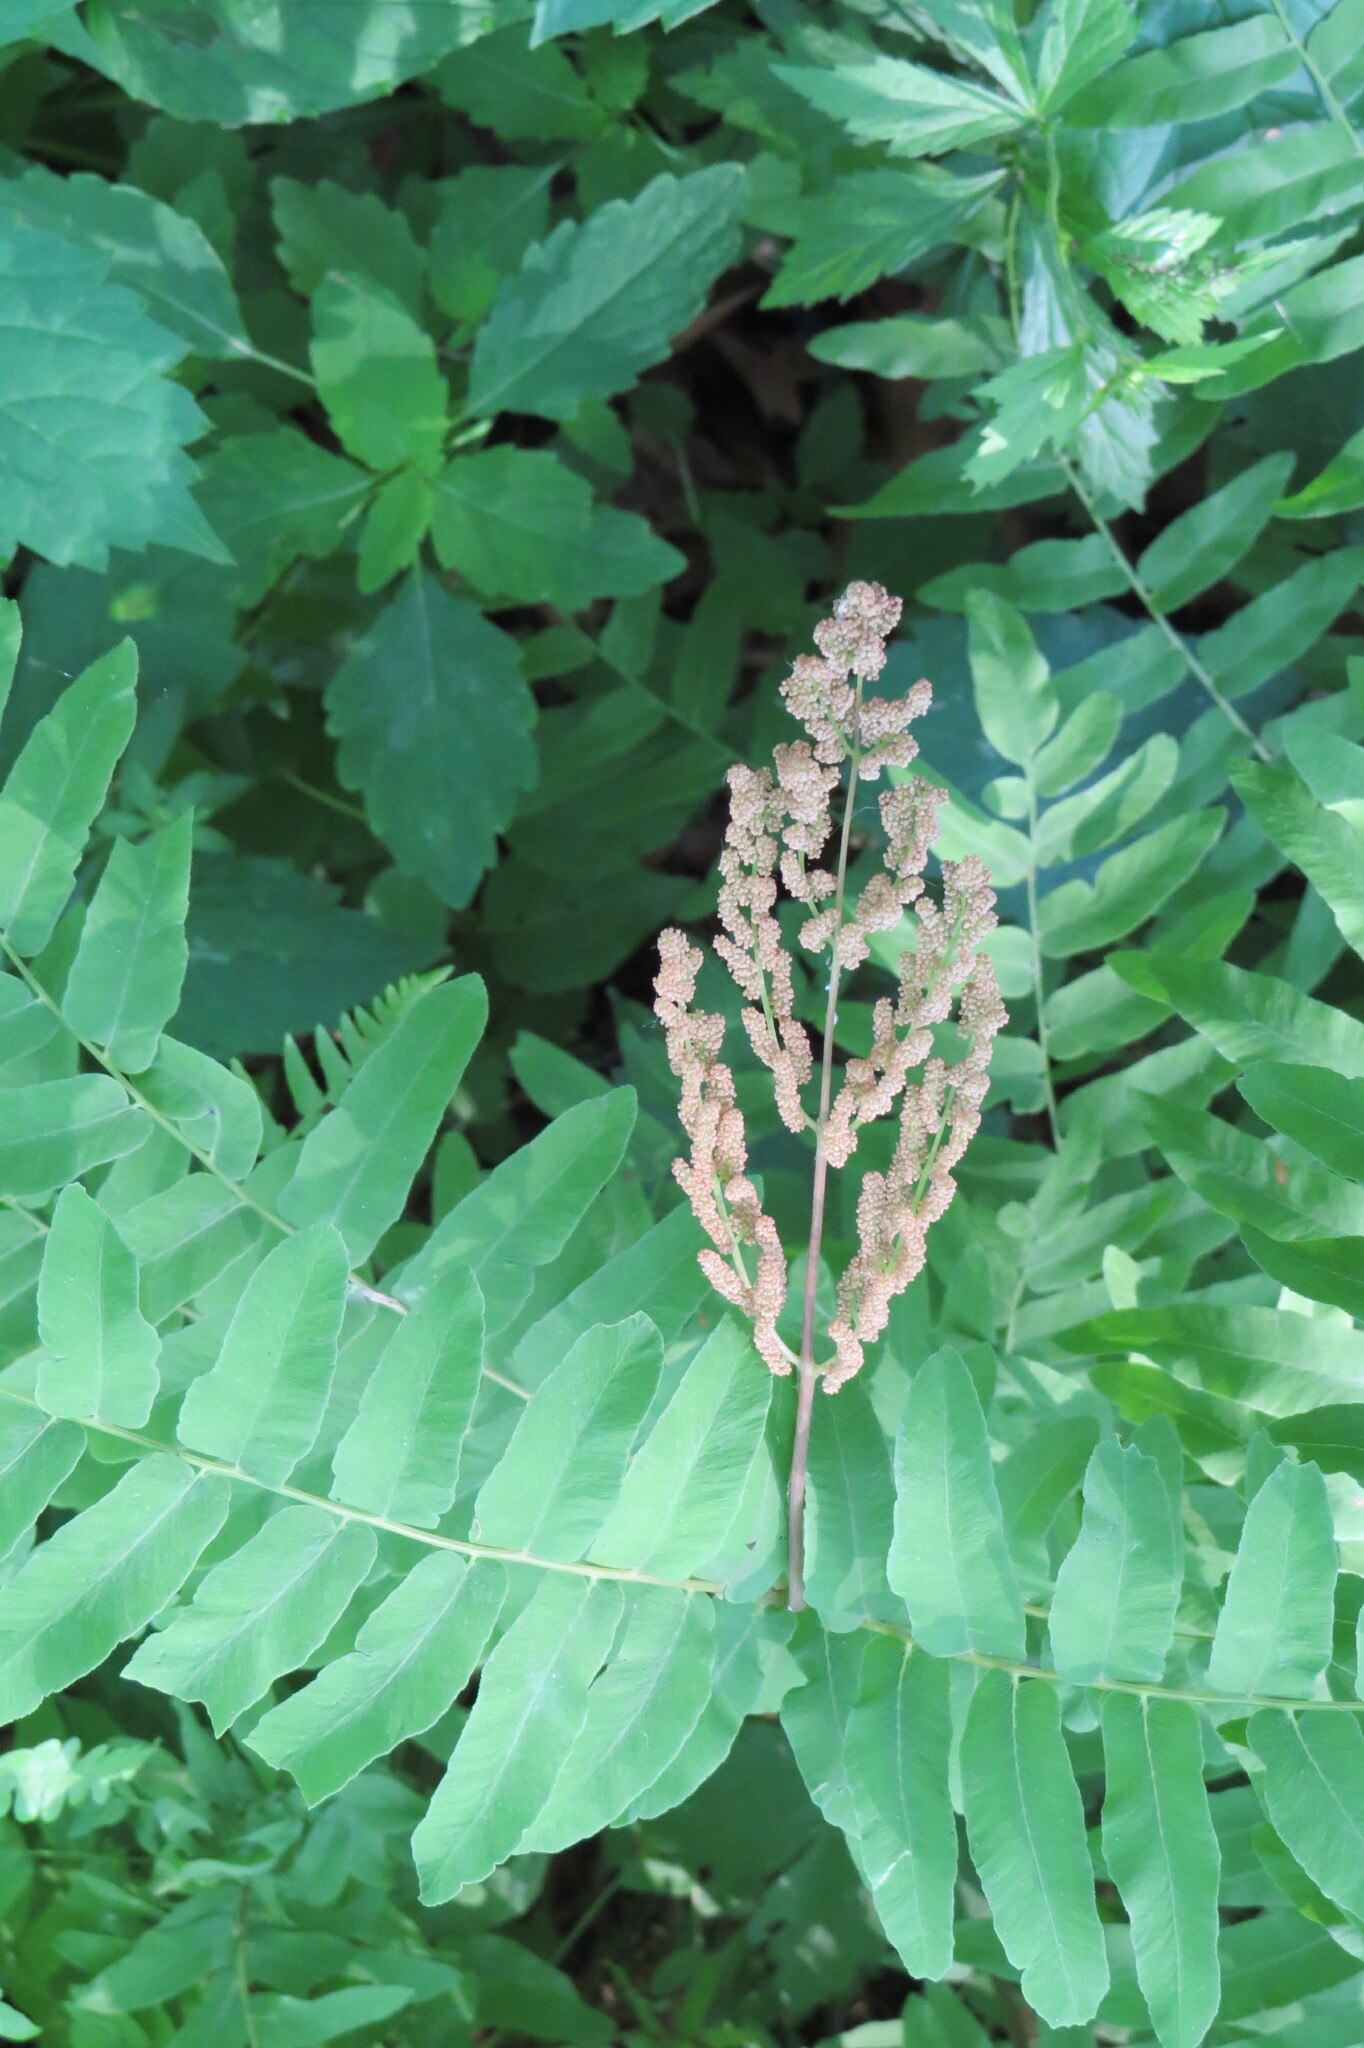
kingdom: Plantae
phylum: Tracheophyta
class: Polypodiopsida
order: Osmundales
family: Osmundaceae
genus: Osmunda
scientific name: Osmunda spectabilis
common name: American royal fern
